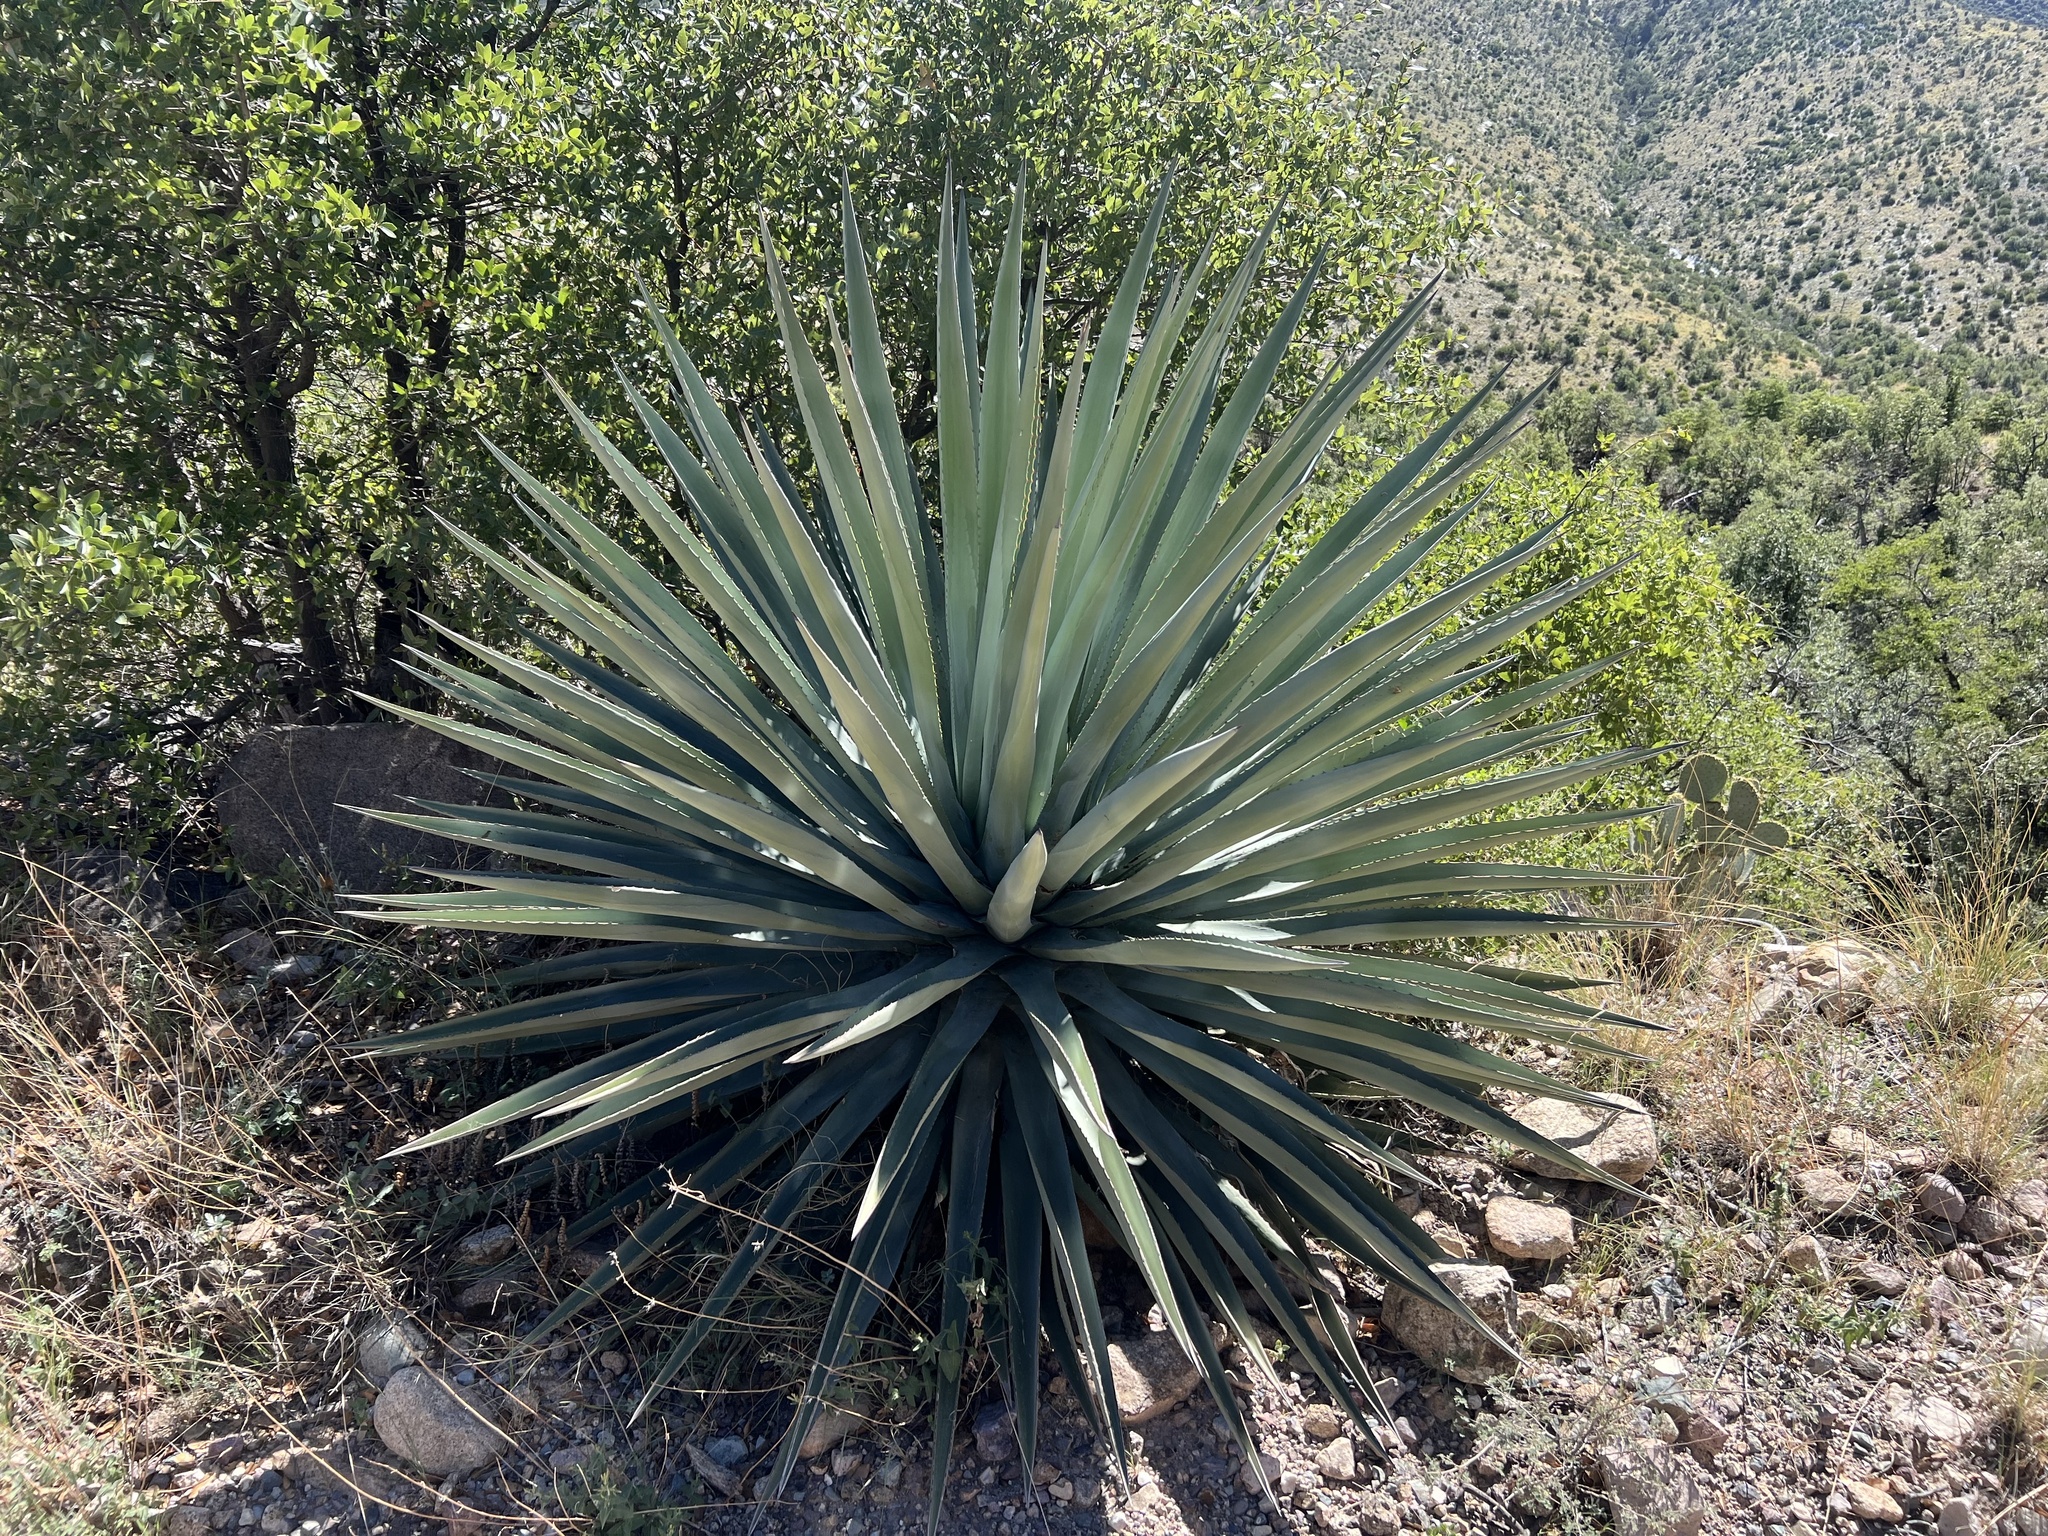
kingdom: Plantae
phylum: Tracheophyta
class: Liliopsida
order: Asparagales
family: Asparagaceae
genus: Agave
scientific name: Agave palmeri
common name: Palmer agave
